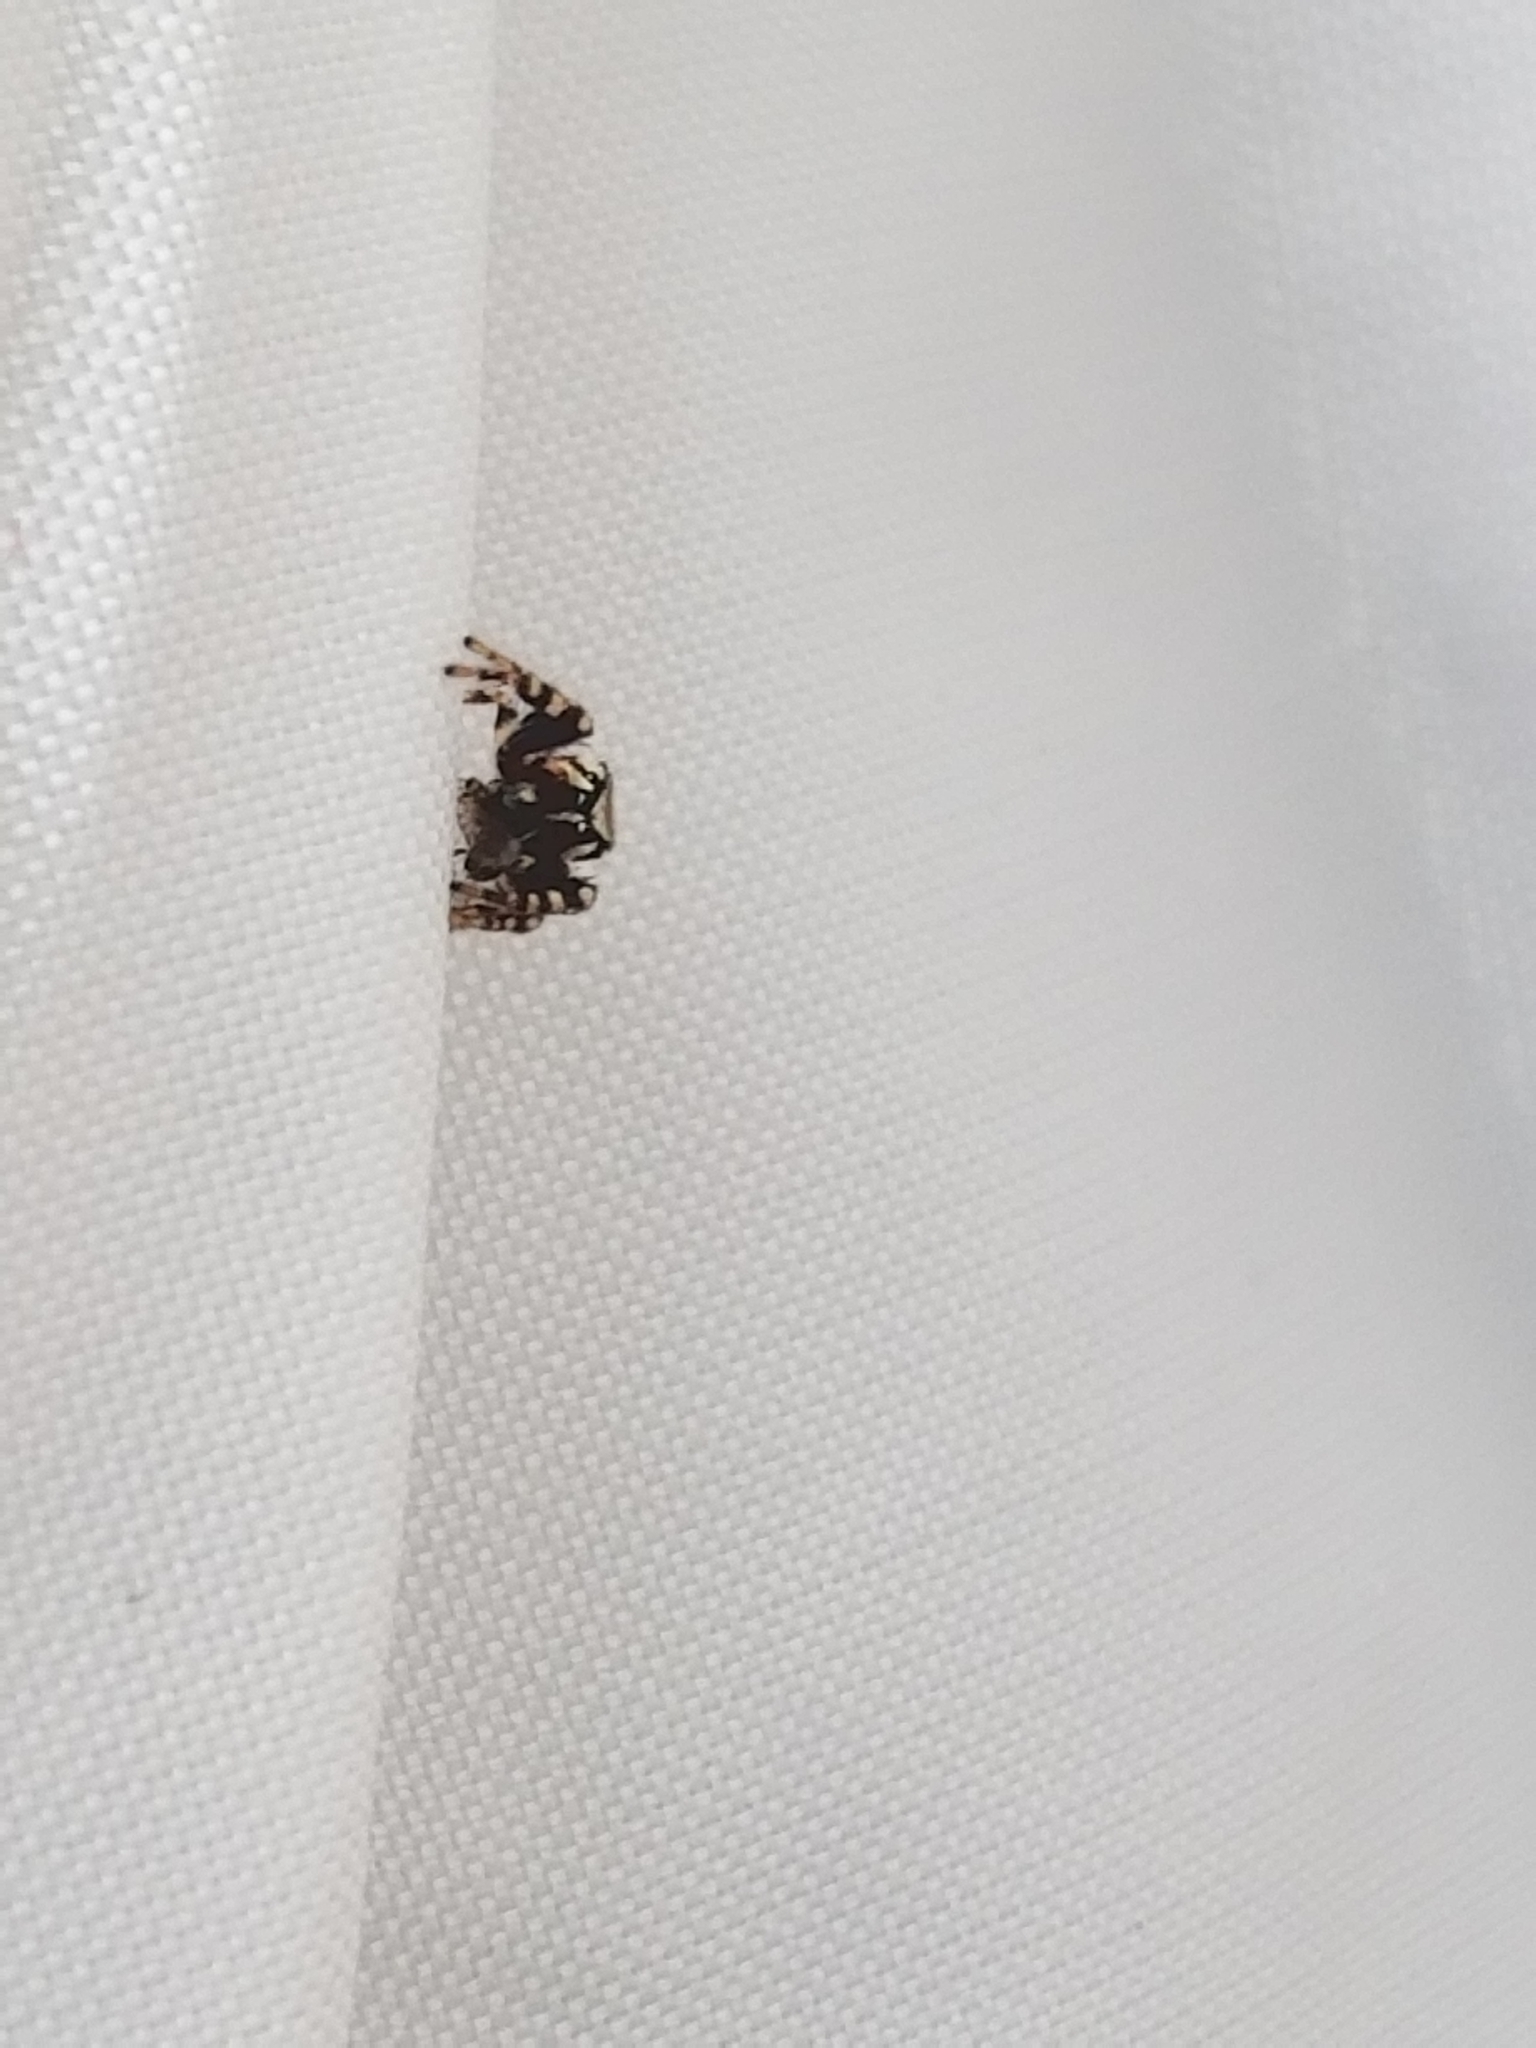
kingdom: Animalia
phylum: Arthropoda
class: Arachnida
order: Araneae
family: Salticidae
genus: Pelegrina
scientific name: Pelegrina proterva
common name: Common white-cheeked jumping spider
